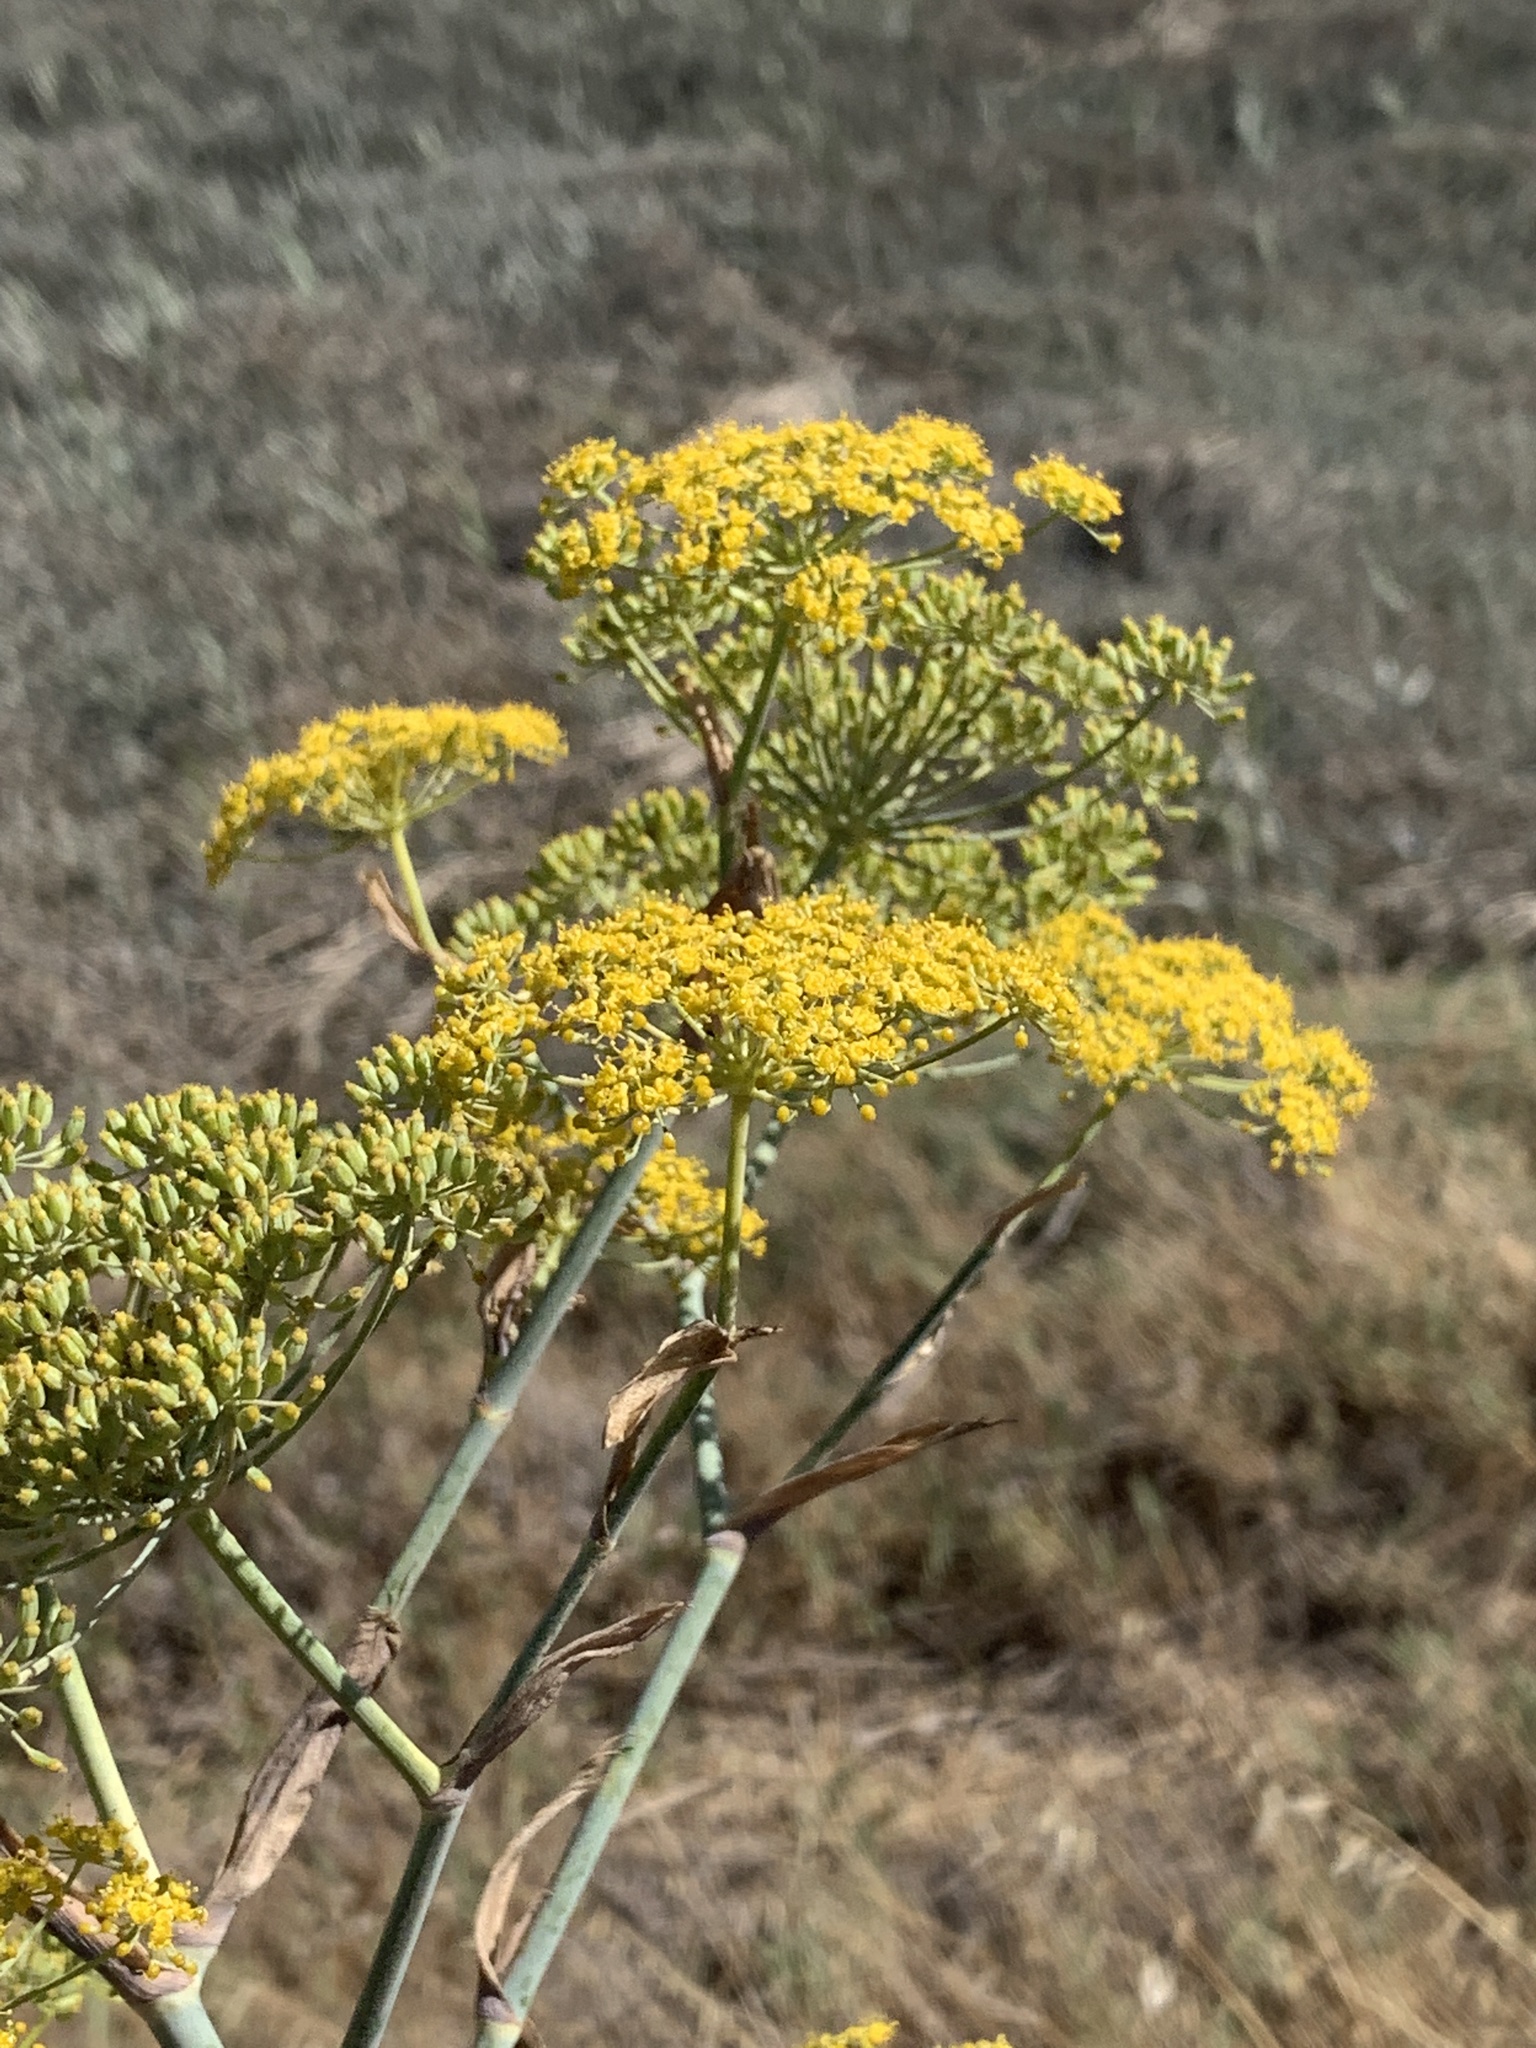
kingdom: Plantae
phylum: Tracheophyta
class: Magnoliopsida
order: Apiales
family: Apiaceae
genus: Foeniculum
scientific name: Foeniculum vulgare
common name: Fennel
